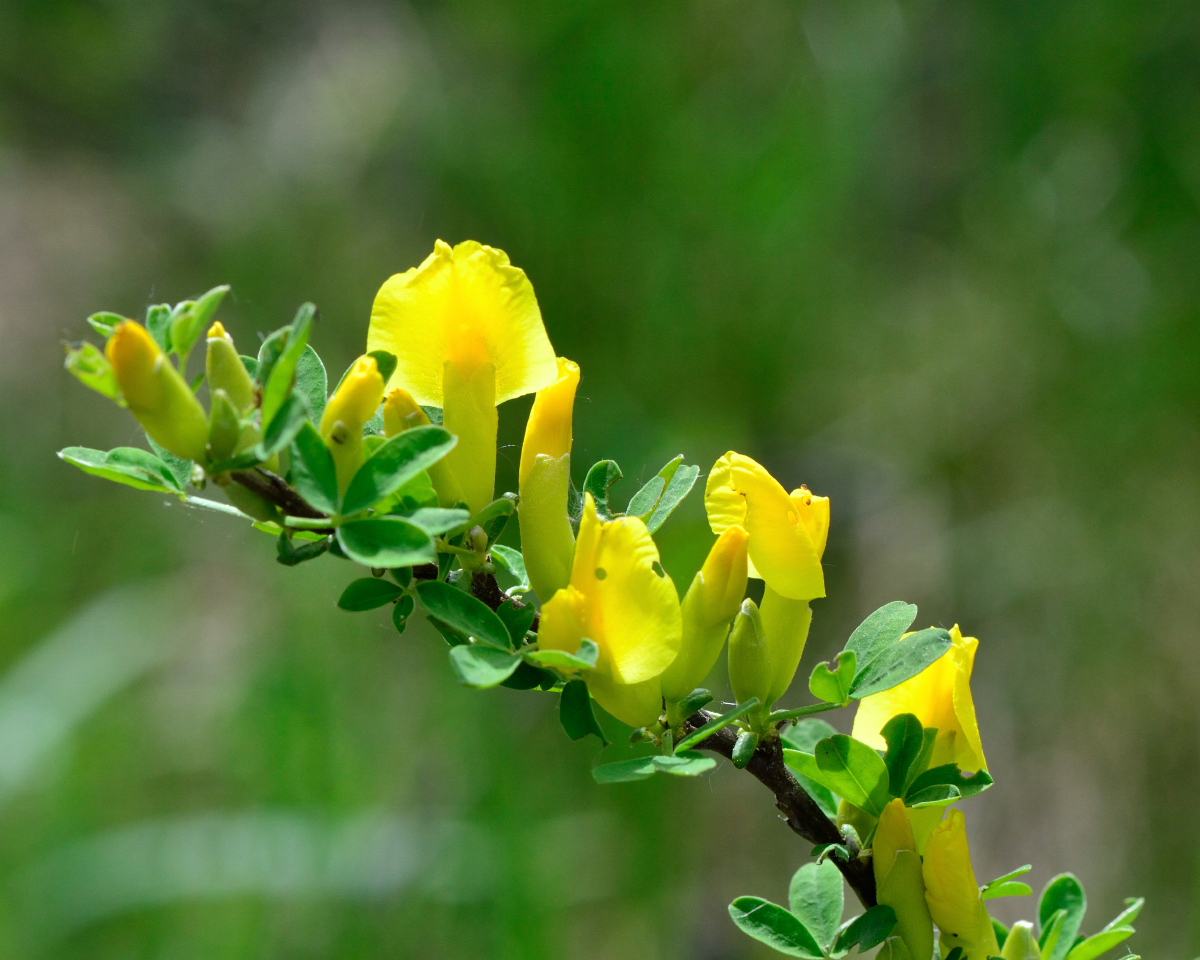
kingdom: Plantae
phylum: Tracheophyta
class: Magnoliopsida
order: Fabales
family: Fabaceae
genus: Chamaecytisus
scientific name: Chamaecytisus ruthenicus
